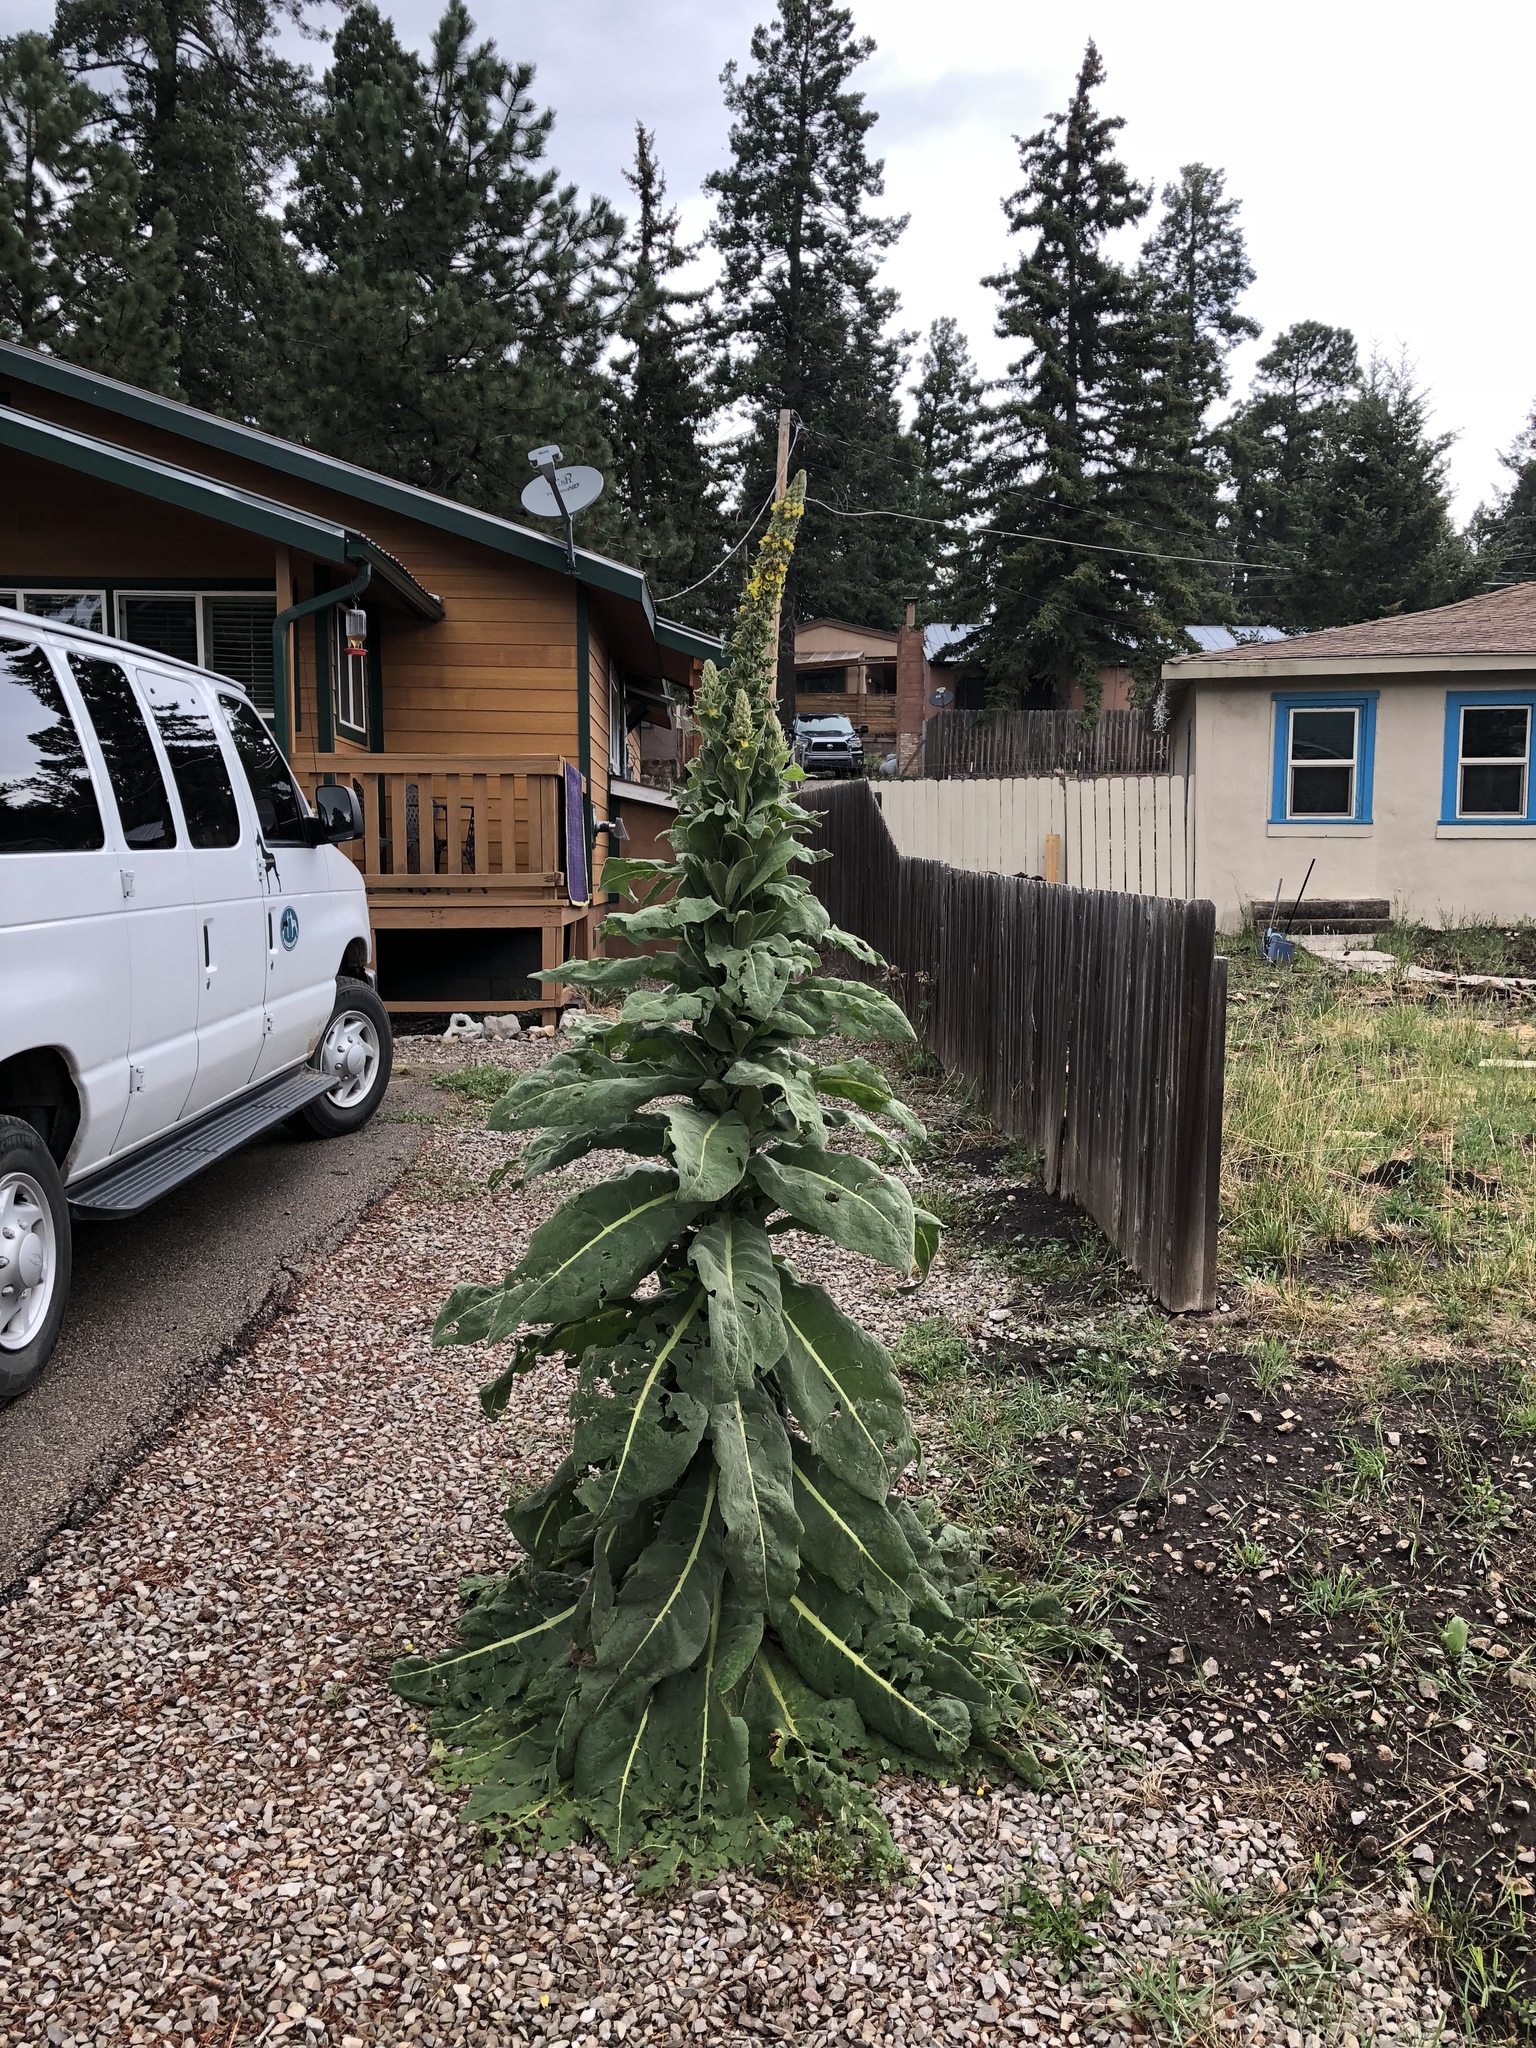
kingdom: Plantae
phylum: Tracheophyta
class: Magnoliopsida
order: Lamiales
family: Scrophulariaceae
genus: Verbascum
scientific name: Verbascum thapsus
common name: Common mullein
